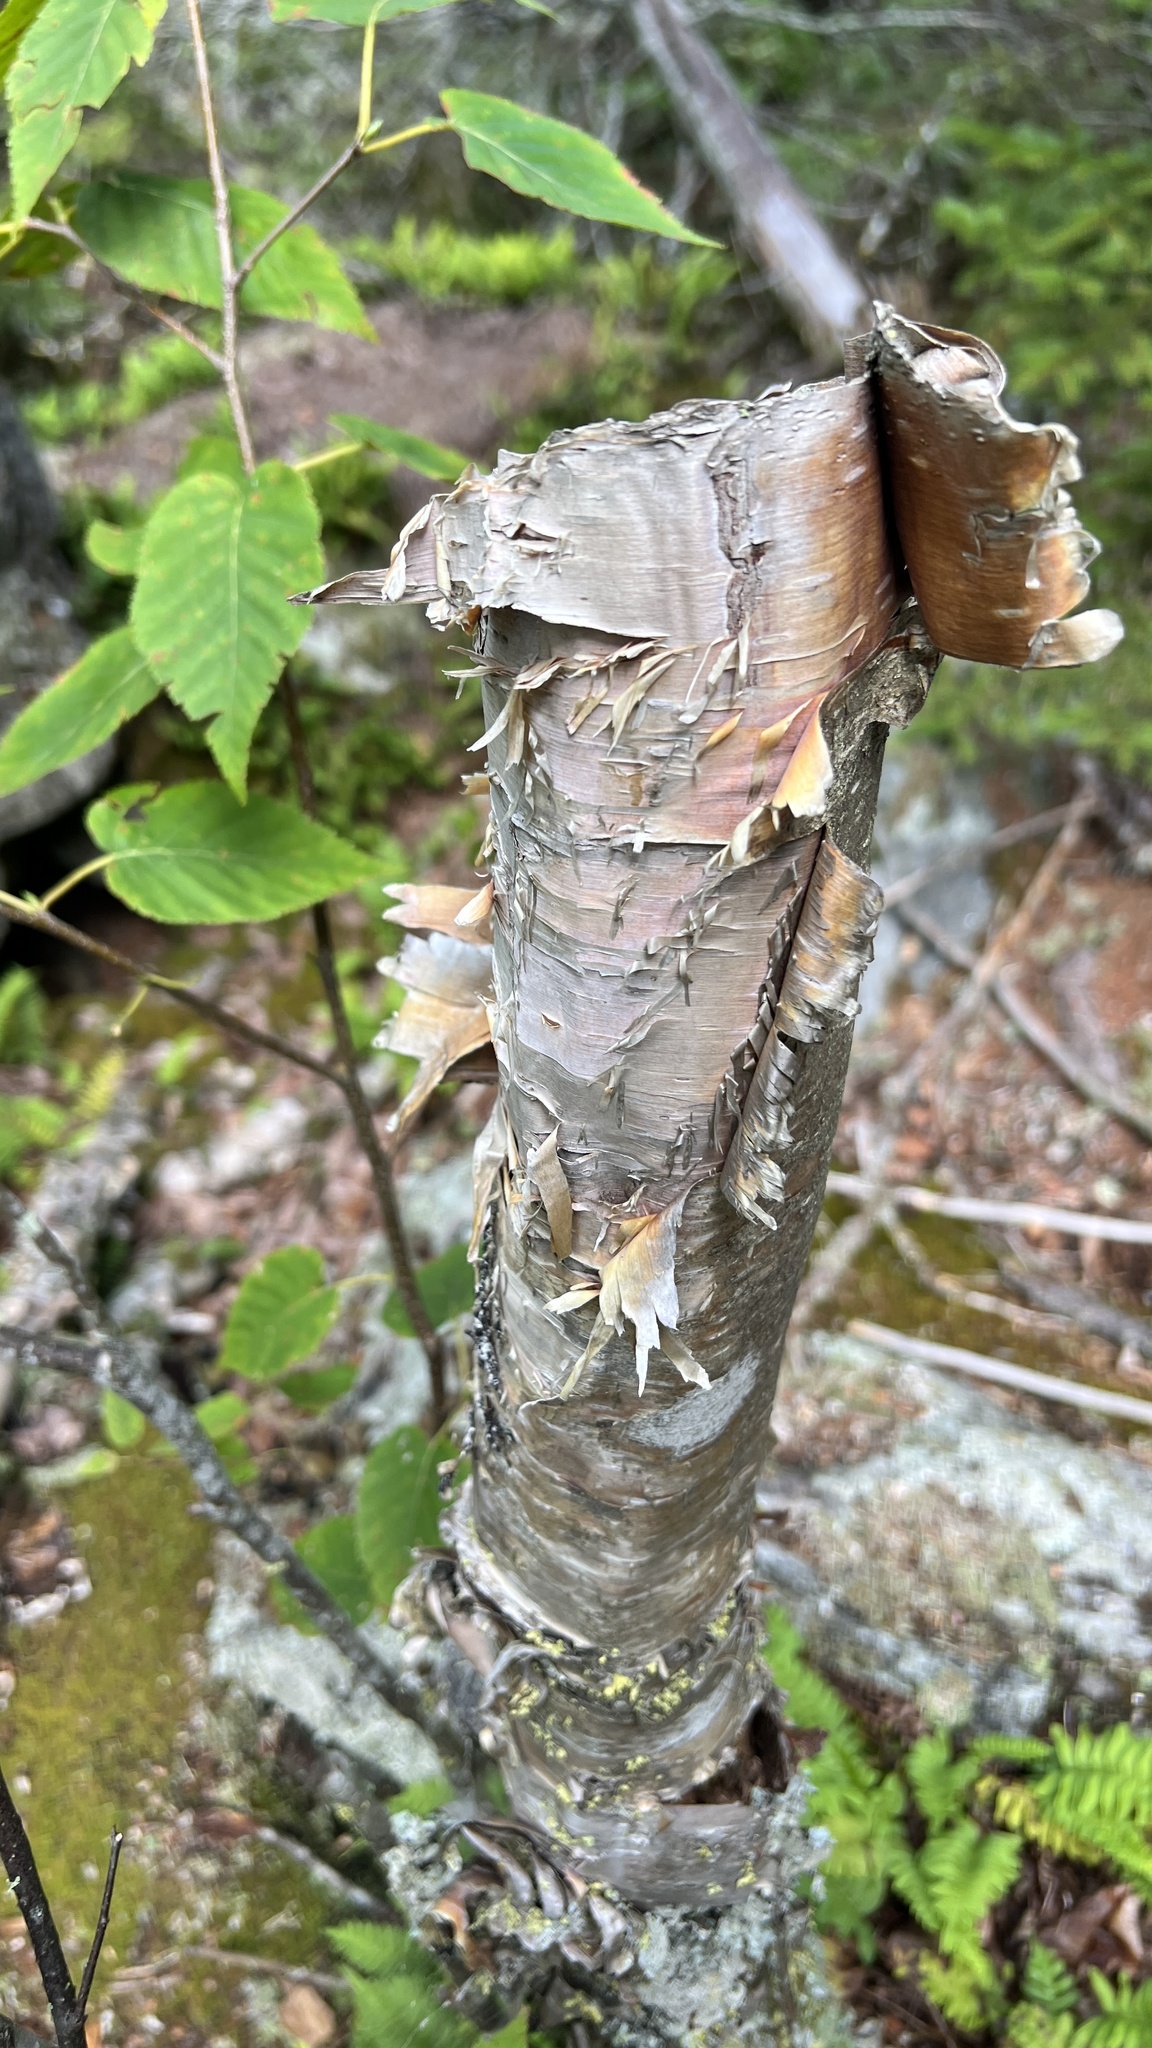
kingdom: Plantae
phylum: Tracheophyta
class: Magnoliopsida
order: Fagales
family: Betulaceae
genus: Betula
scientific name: Betula cordifolia
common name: Mountain white birch
